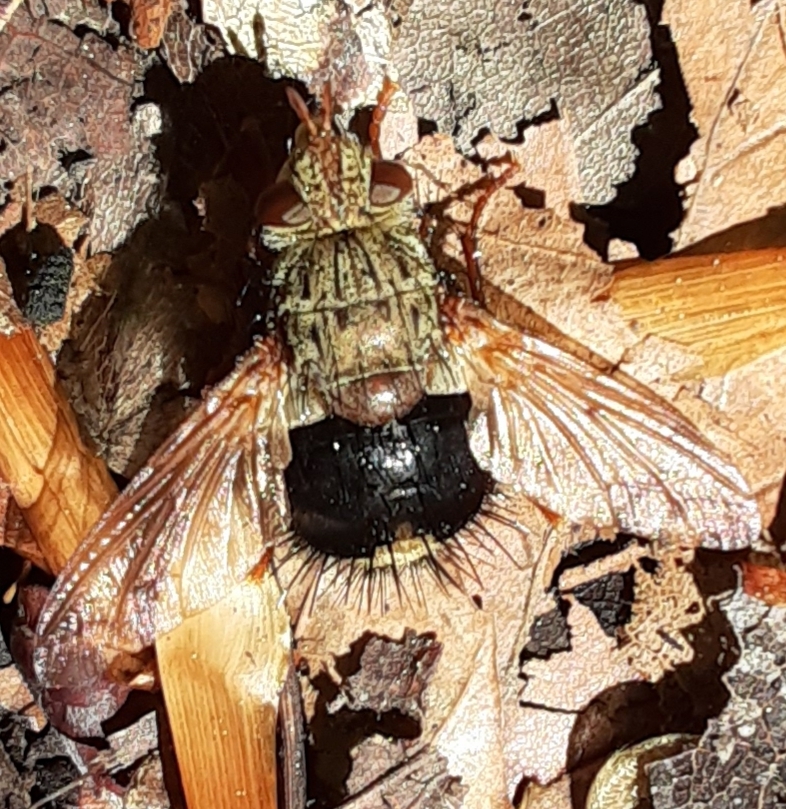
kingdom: Animalia
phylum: Arthropoda
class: Insecta
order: Diptera
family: Tachinidae
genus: Epalpus
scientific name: Epalpus signifer
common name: Early tachinid fly
